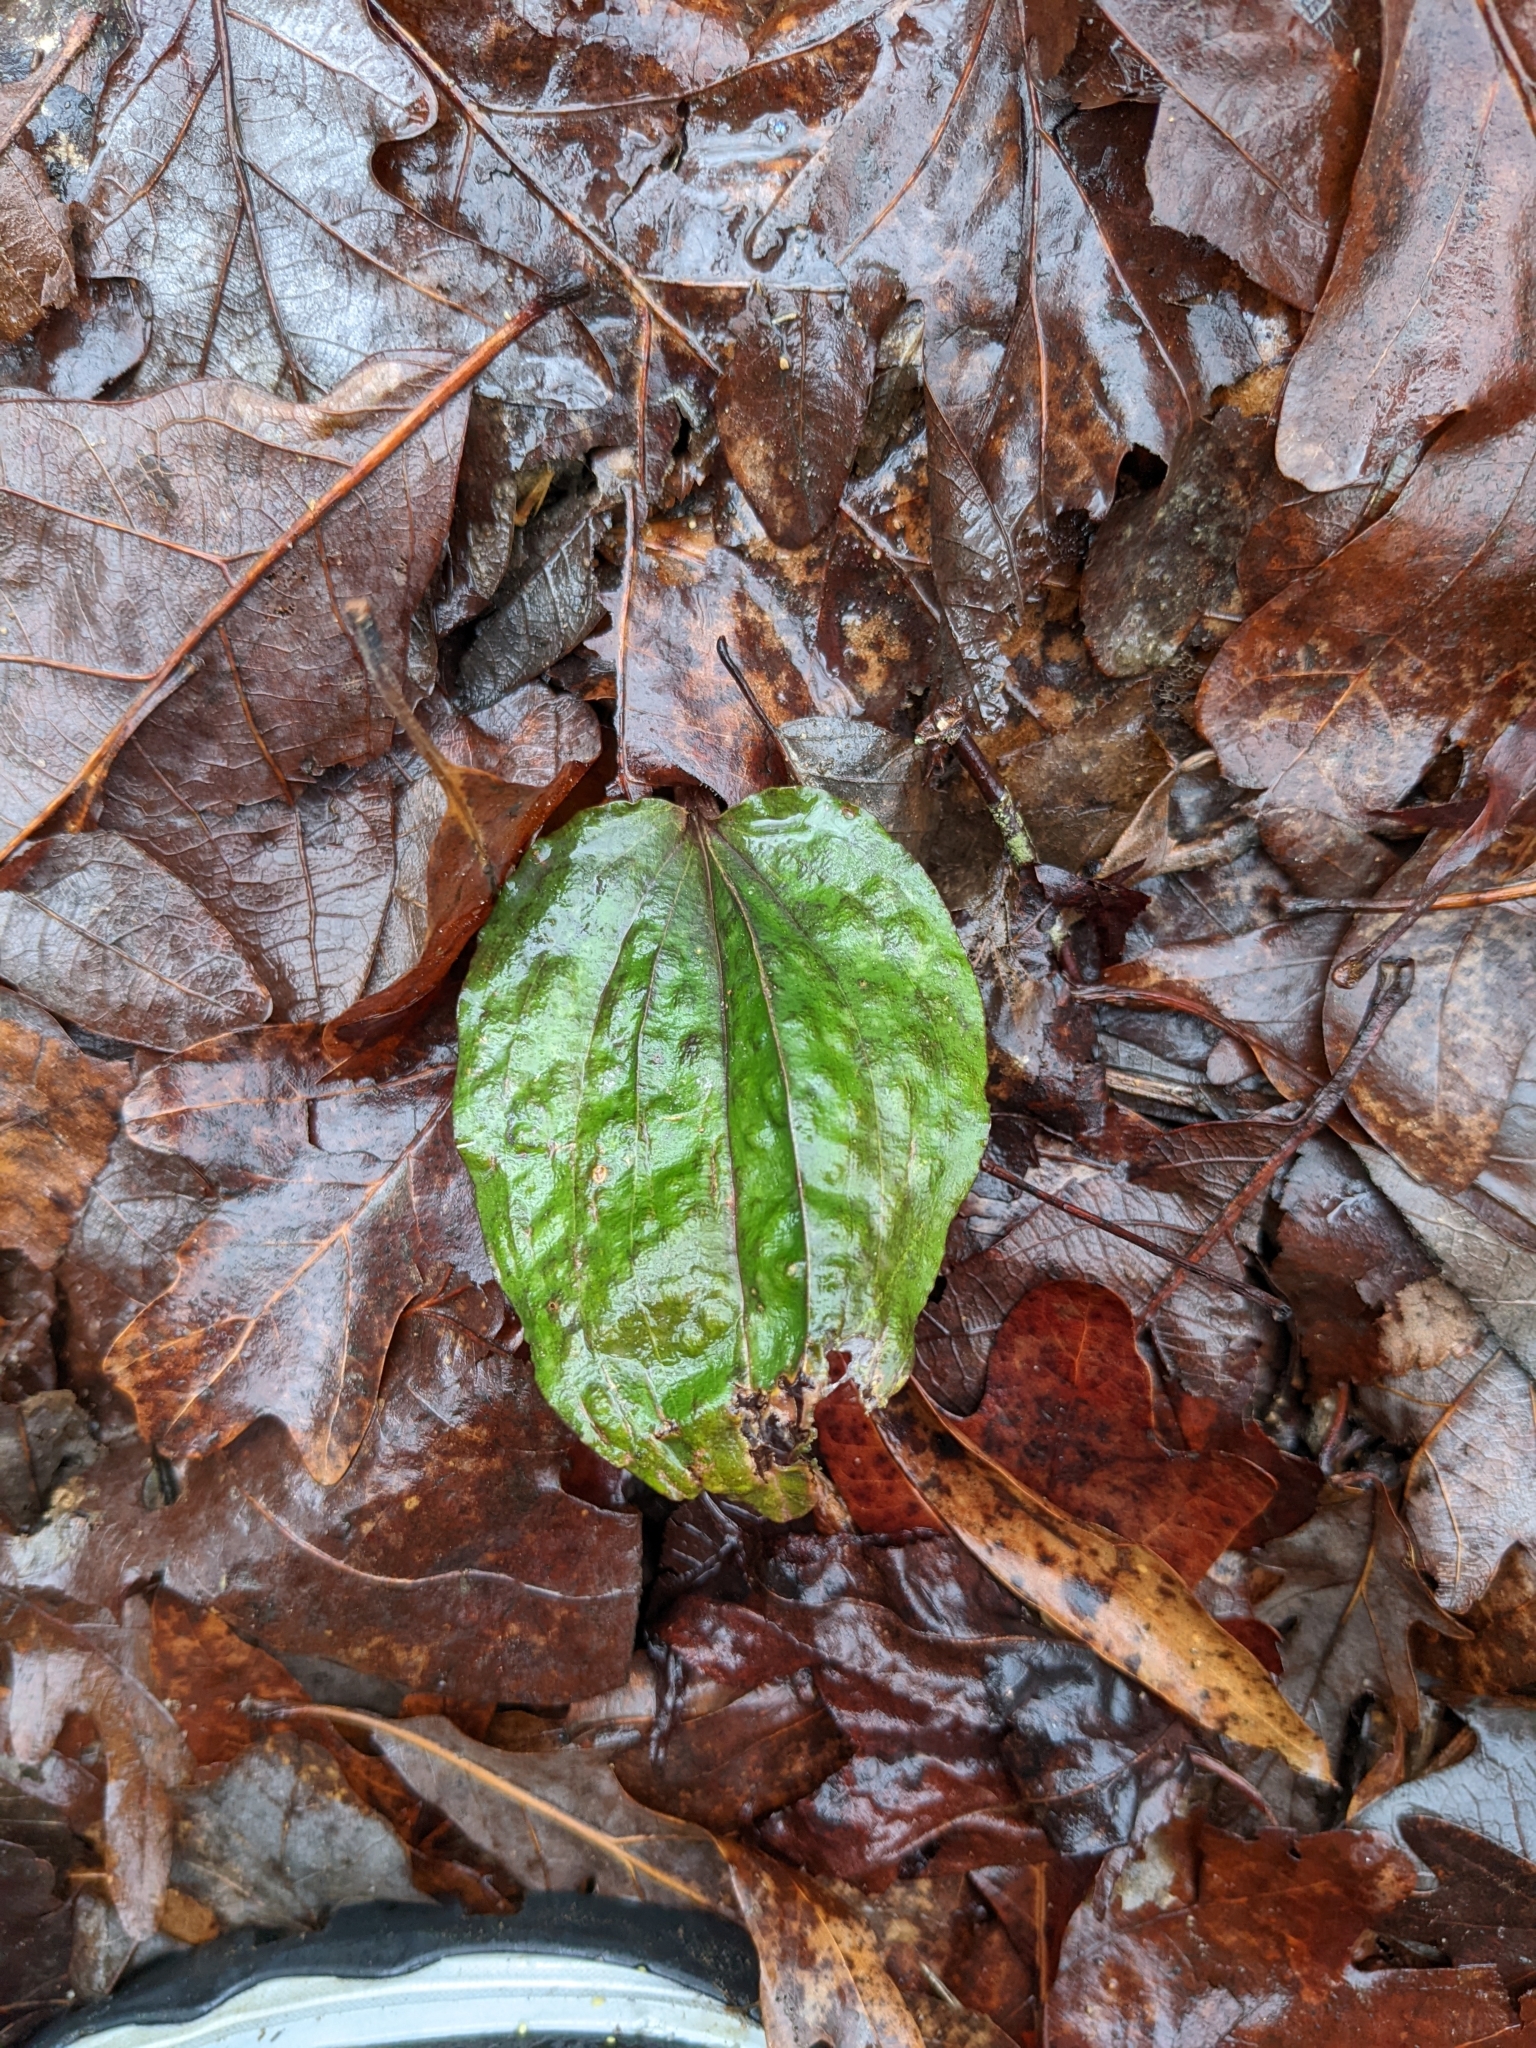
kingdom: Plantae
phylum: Tracheophyta
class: Liliopsida
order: Asparagales
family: Orchidaceae
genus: Tipularia
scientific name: Tipularia discolor
